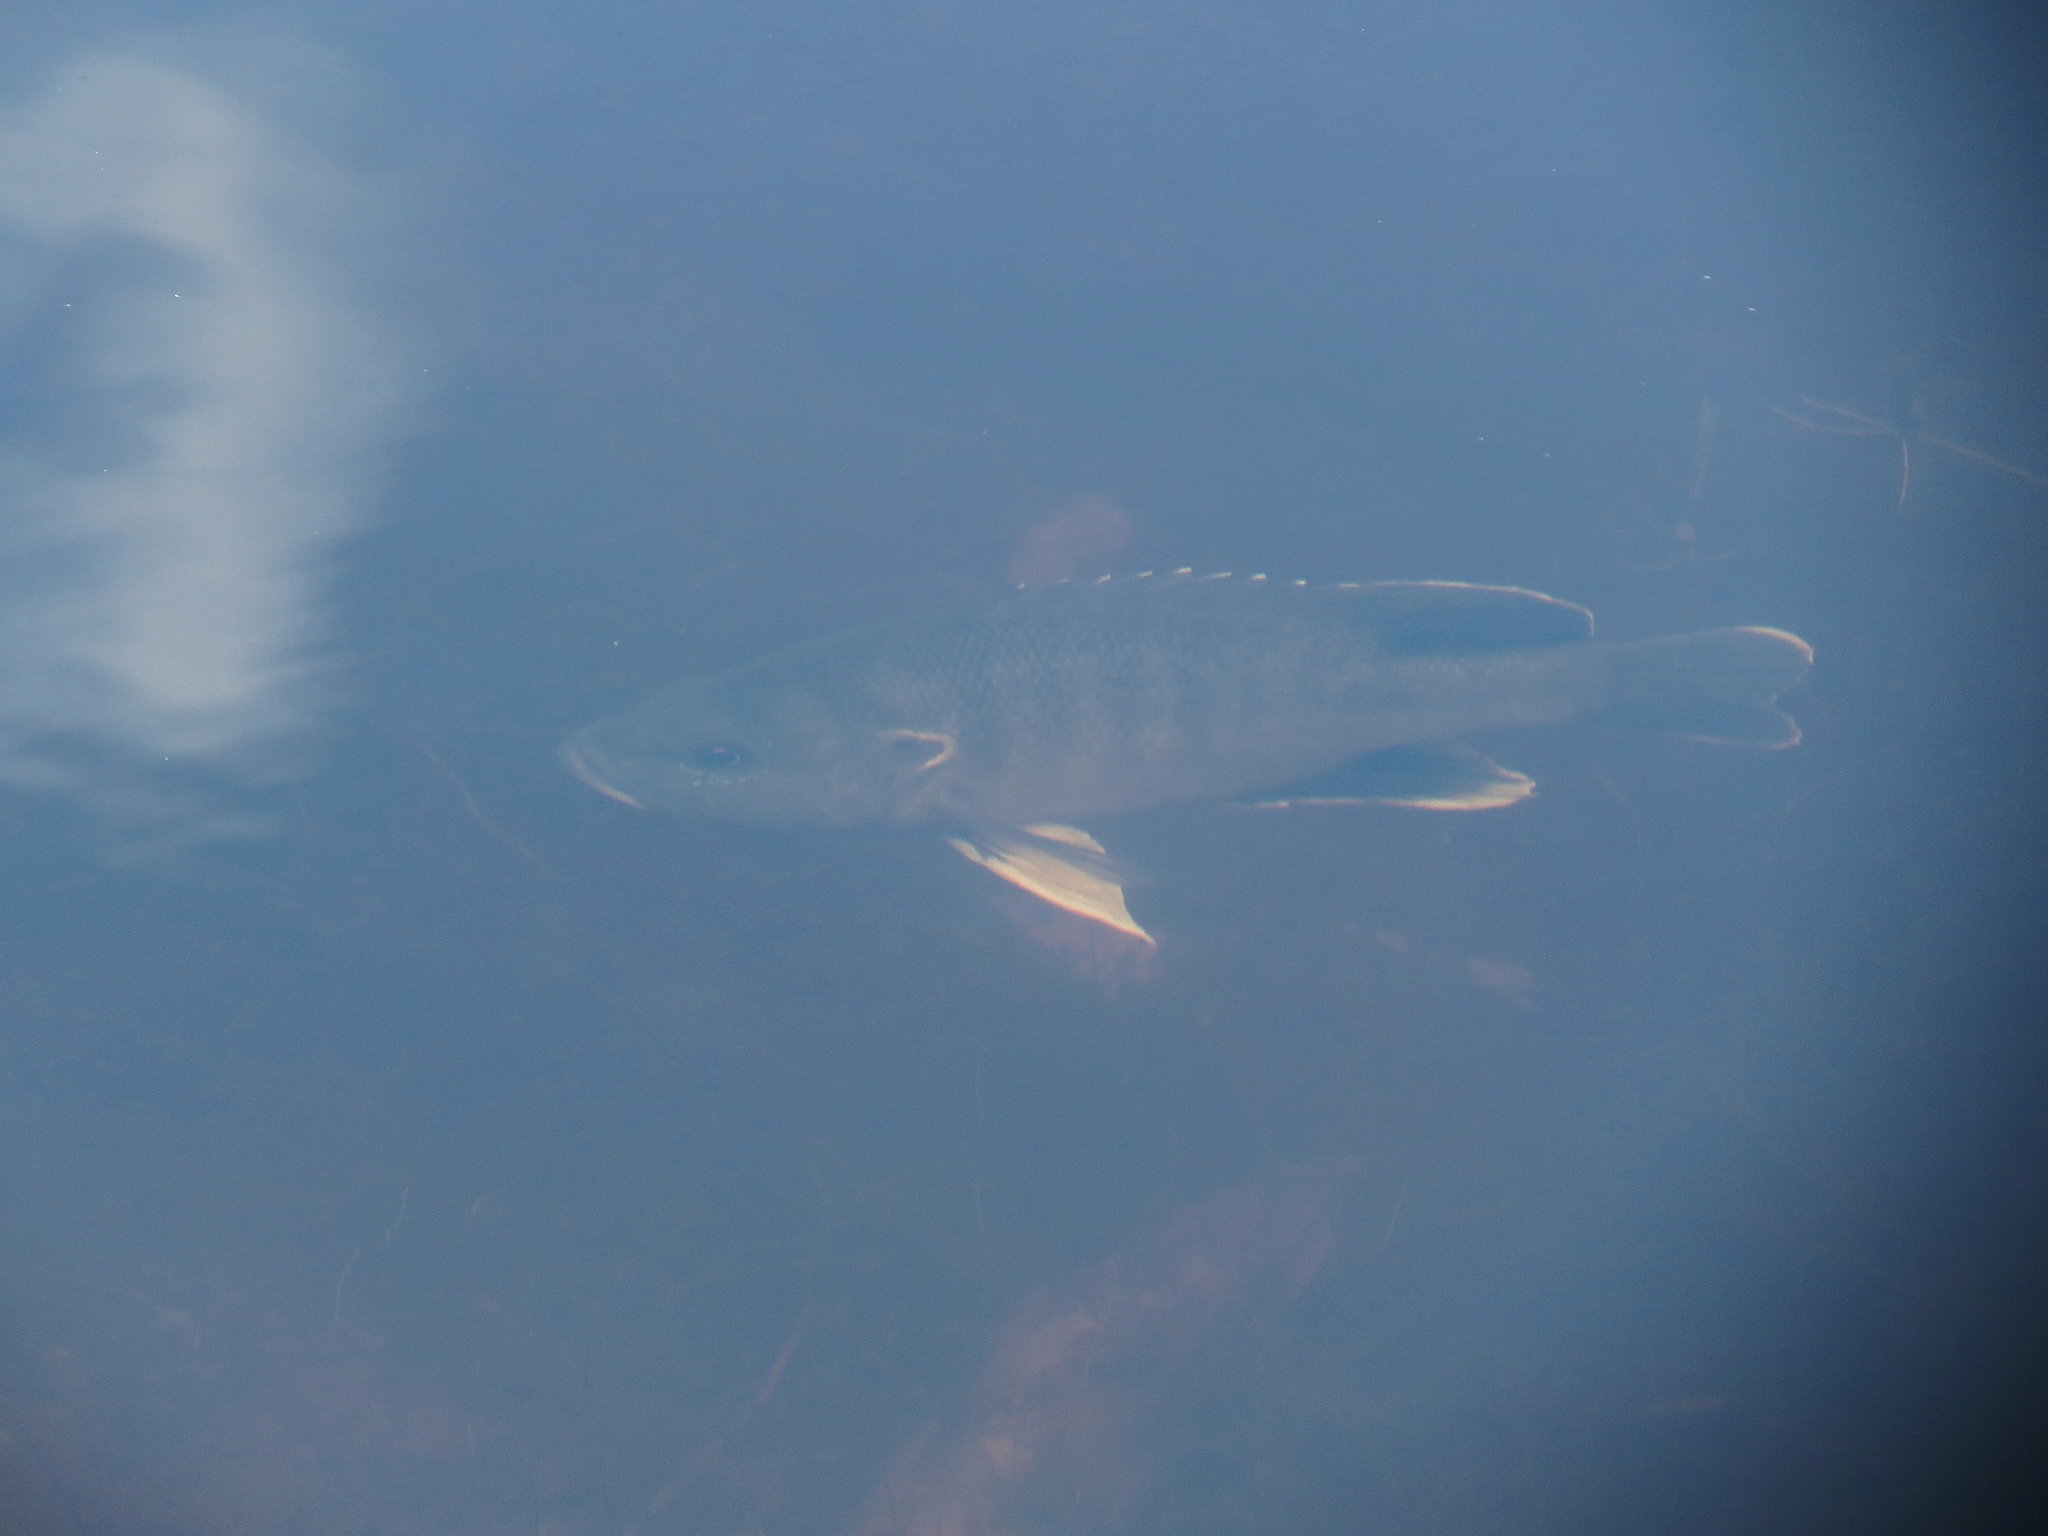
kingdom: Animalia
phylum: Chordata
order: Perciformes
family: Centrarchidae
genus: Lepomis
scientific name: Lepomis cyanellus
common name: Green sunfish
